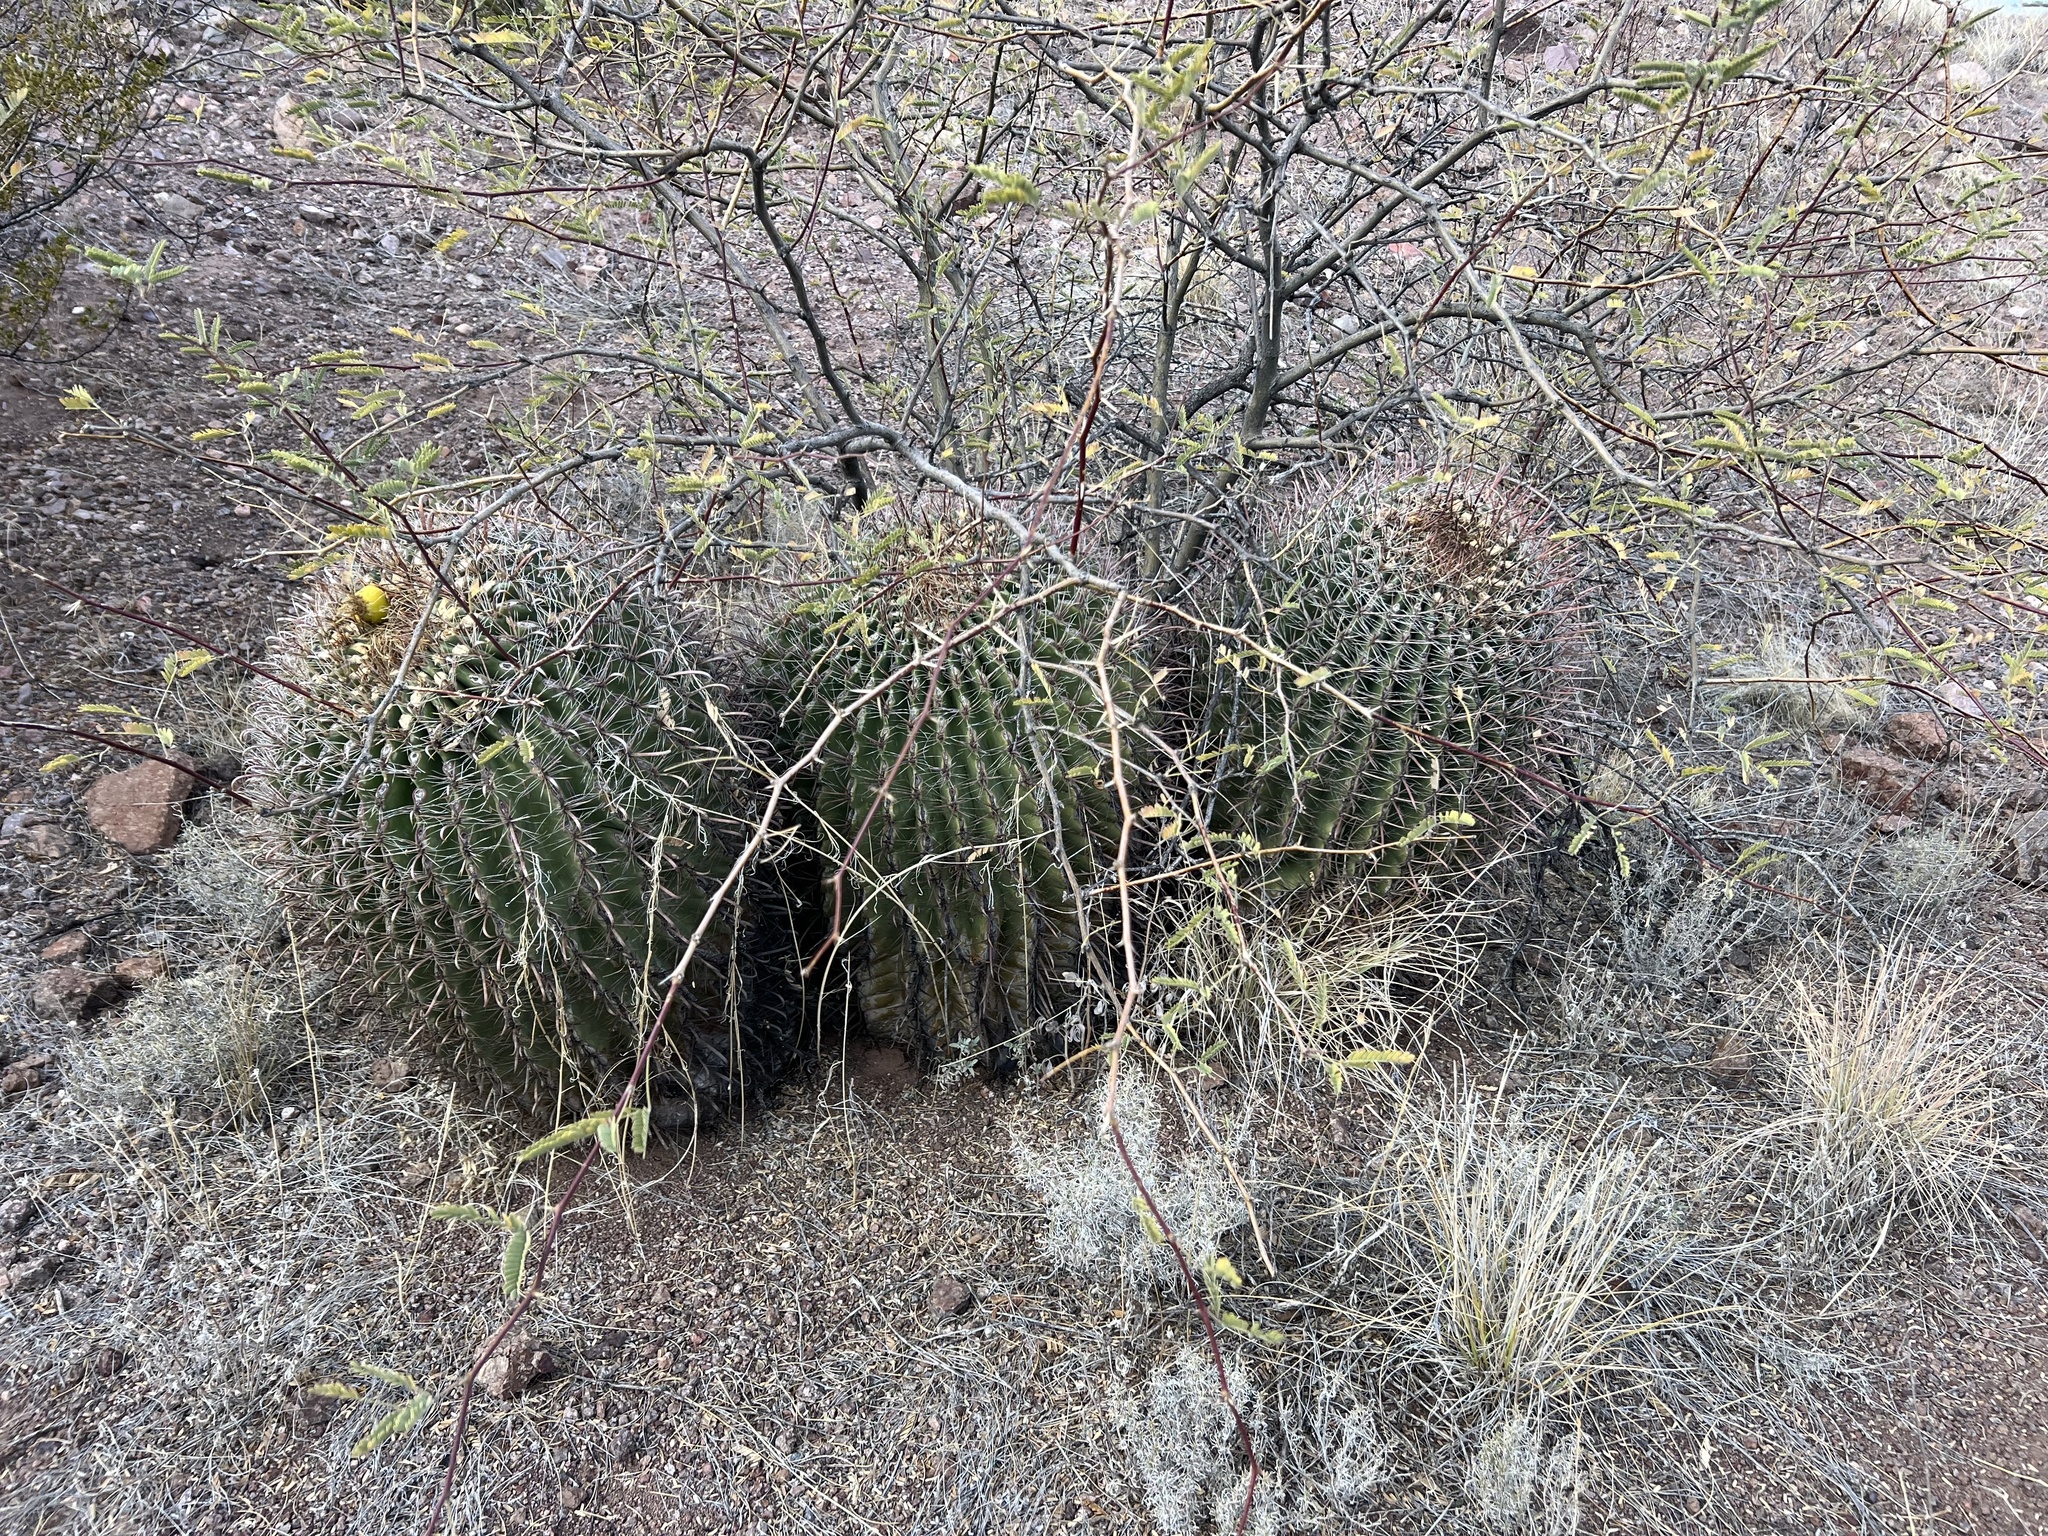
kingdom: Plantae
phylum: Tracheophyta
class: Magnoliopsida
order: Caryophyllales
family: Cactaceae
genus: Ferocactus
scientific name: Ferocactus wislizeni
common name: Candy barrel cactus
